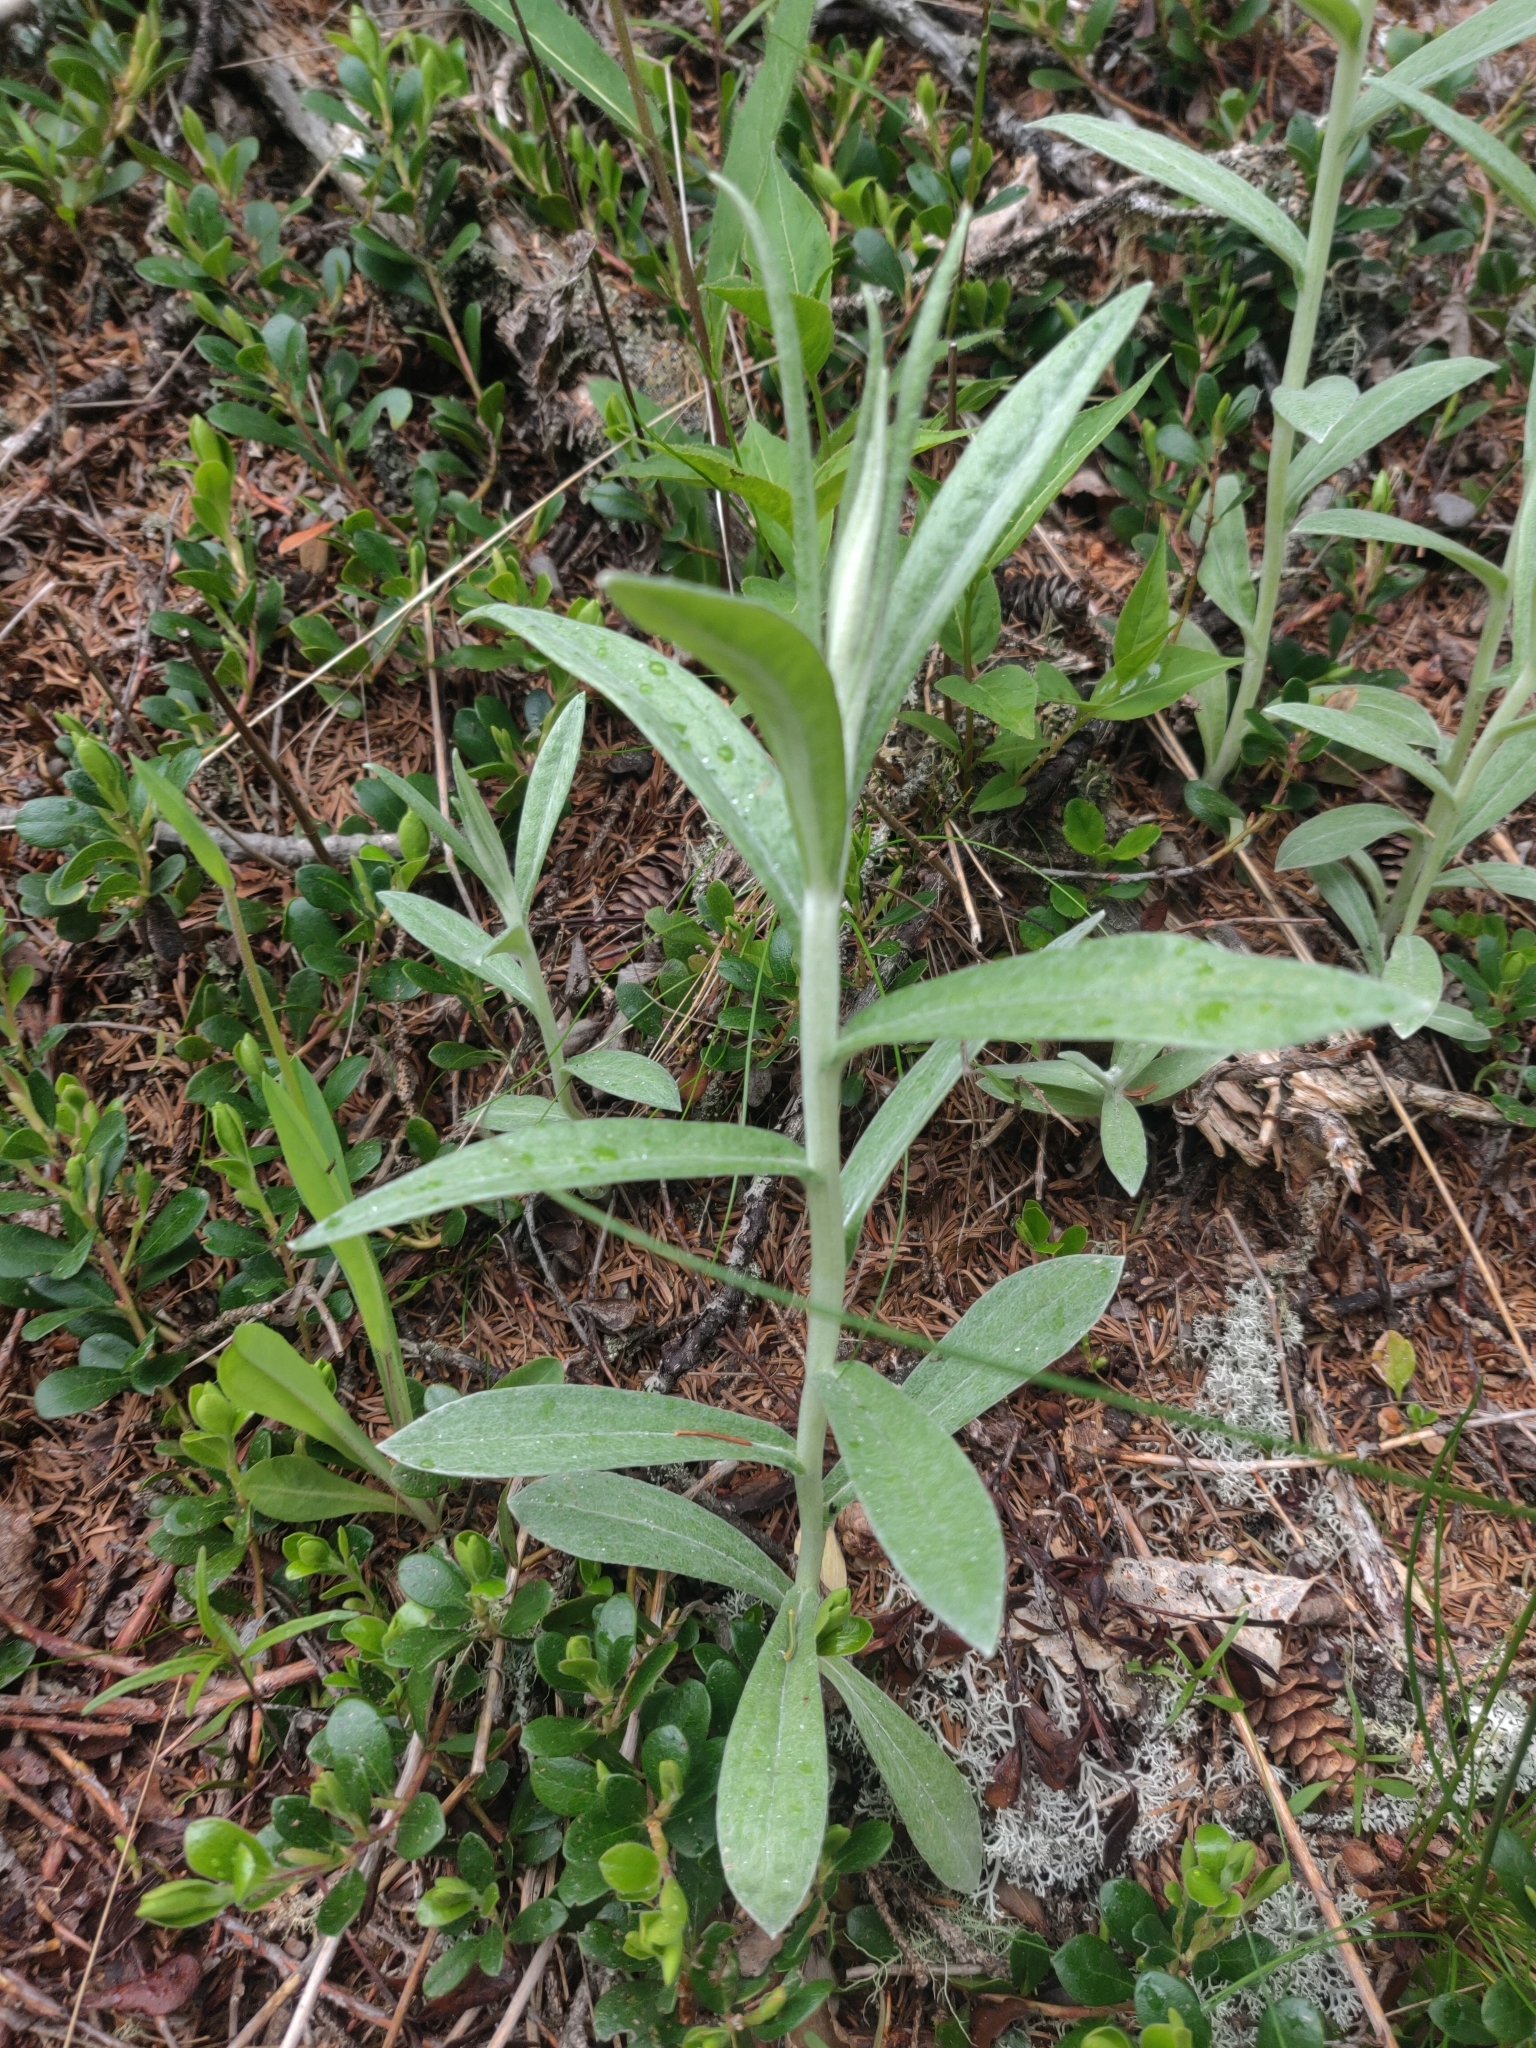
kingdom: Plantae
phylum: Tracheophyta
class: Magnoliopsida
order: Asterales
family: Asteraceae
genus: Anaphalis
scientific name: Anaphalis margaritacea
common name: Pearly everlasting
